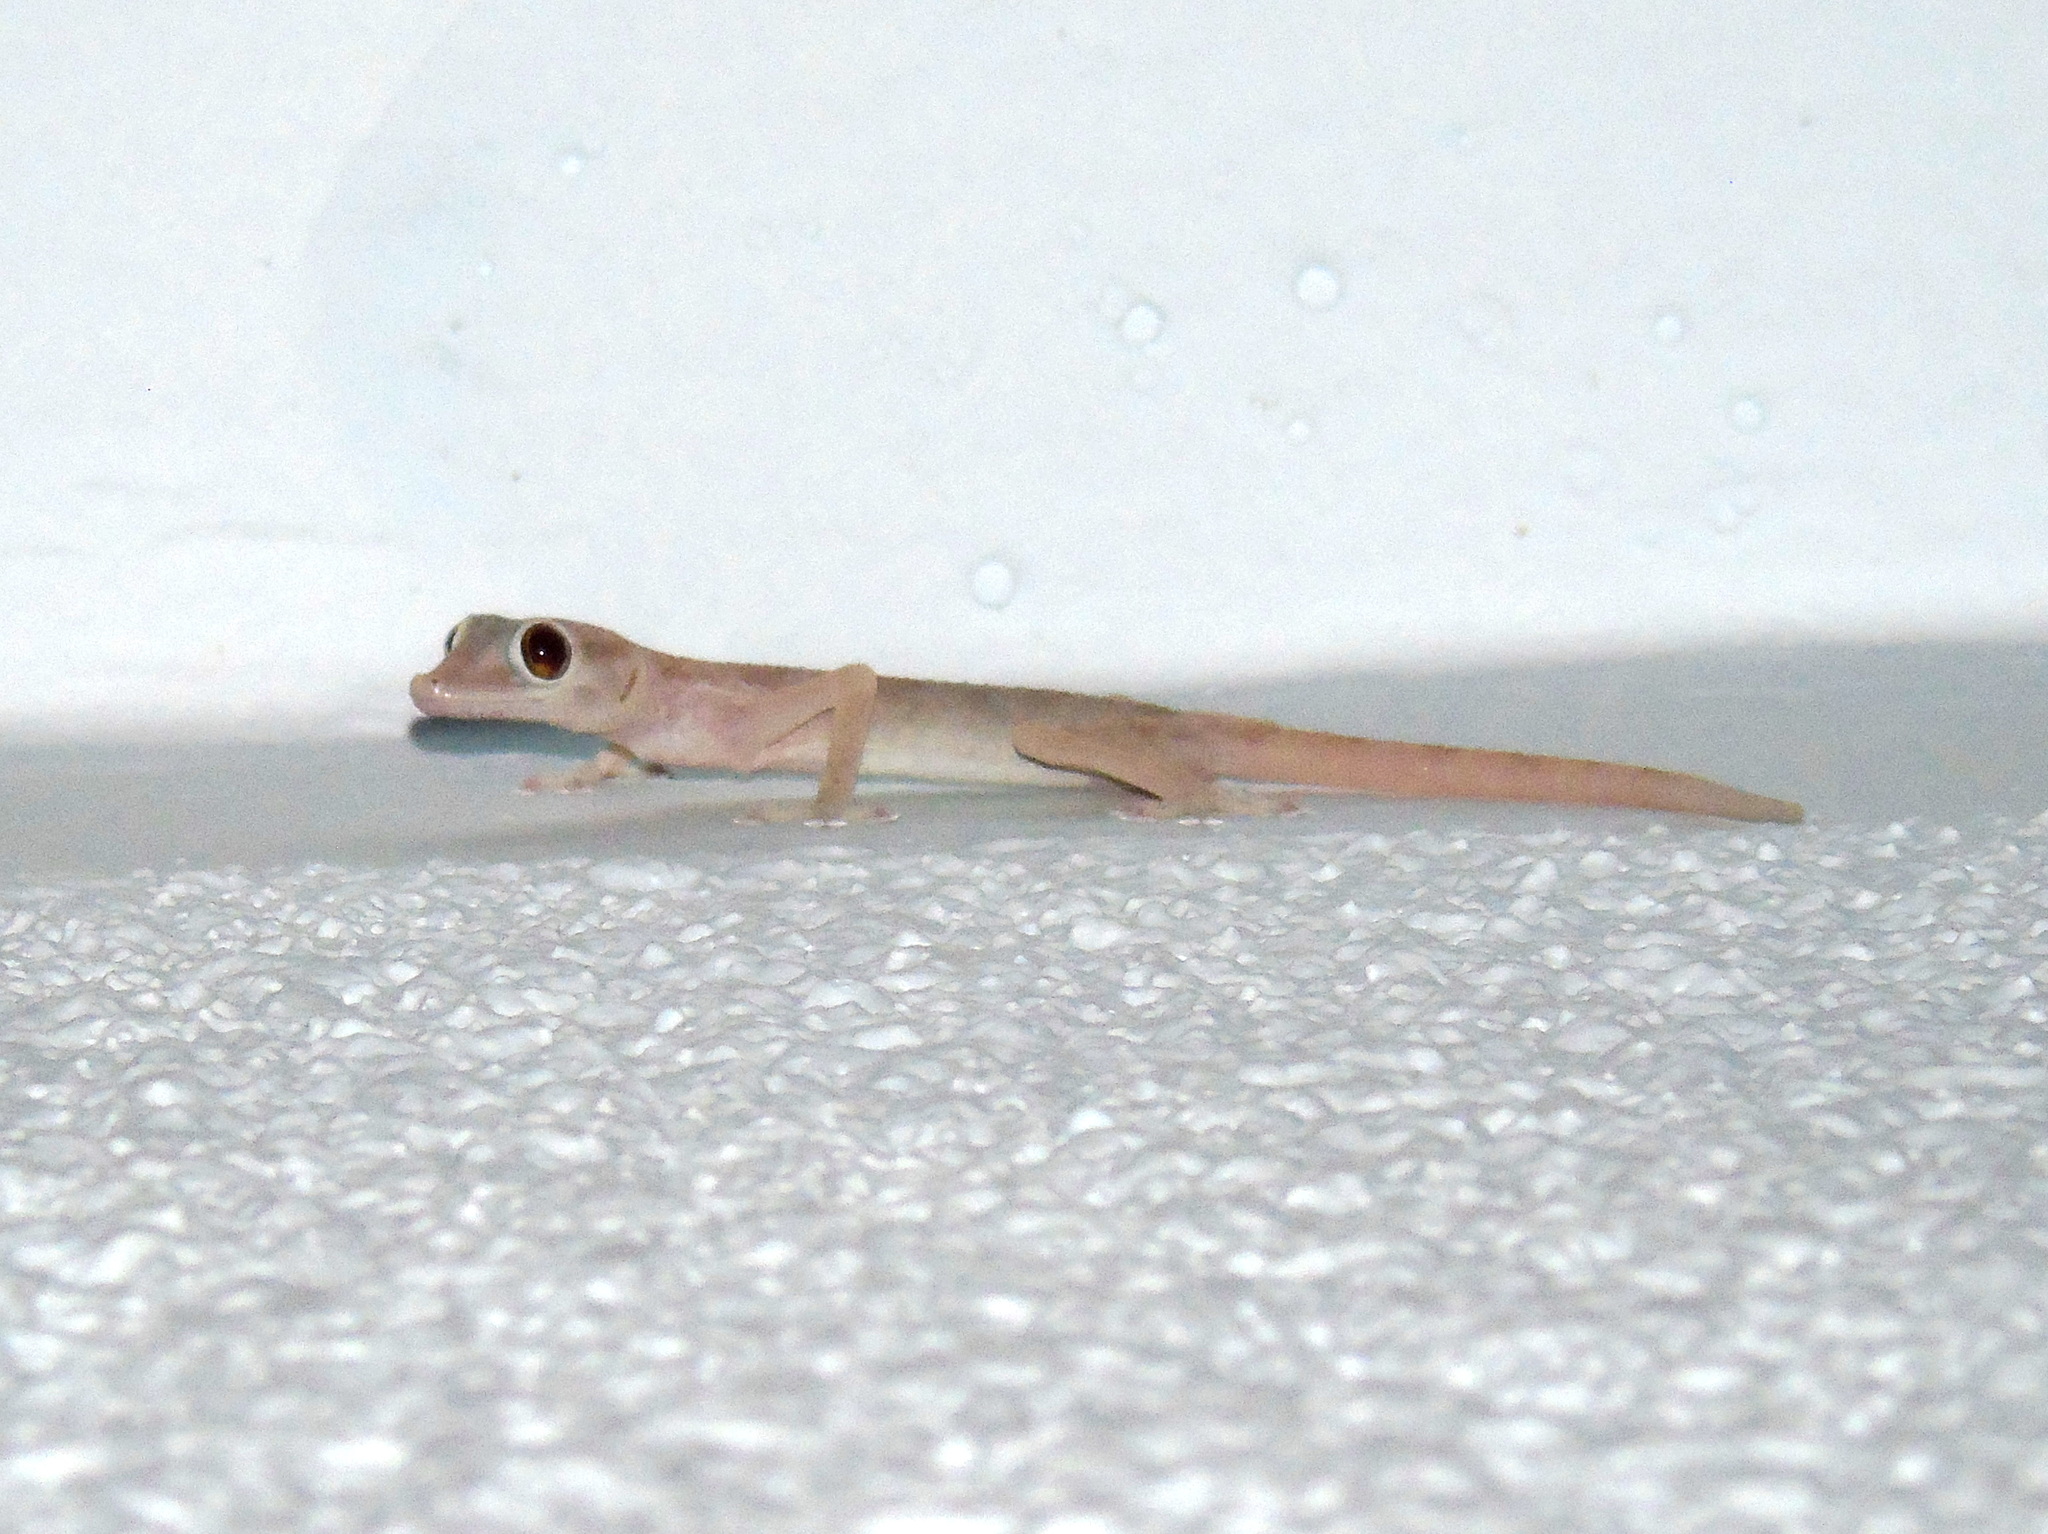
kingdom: Animalia
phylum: Chordata
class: Squamata
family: Phyllodactylidae
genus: Ptyodactylus
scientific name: Ptyodactylus hasselquistii
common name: Hasselquist’s fan-footed gecko
